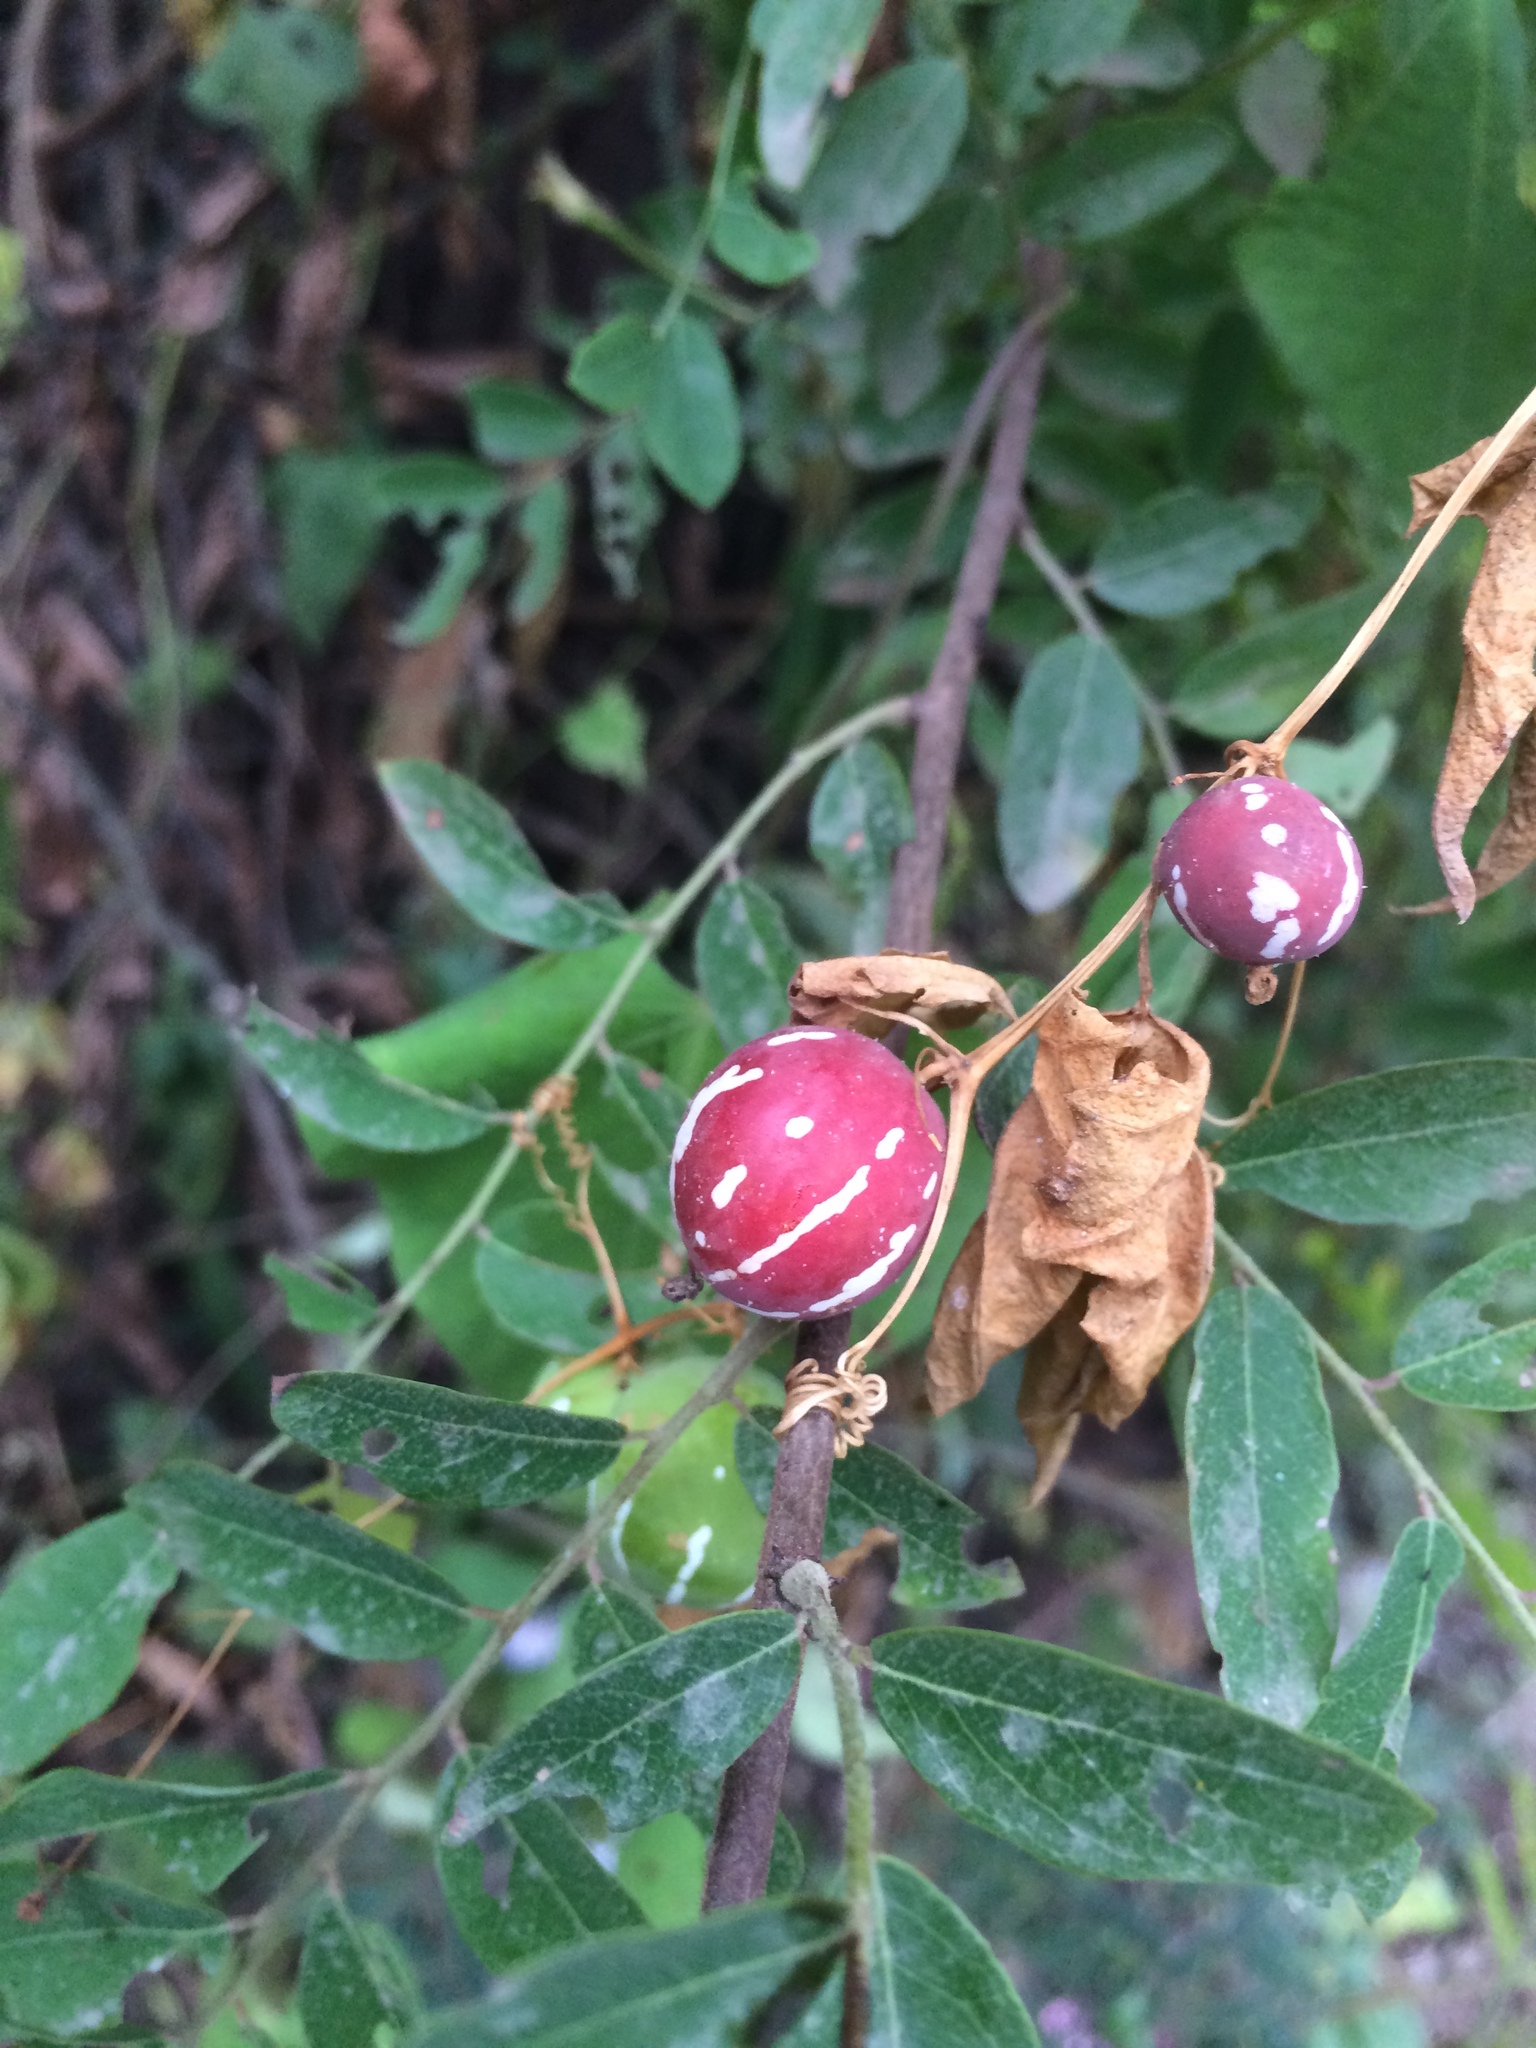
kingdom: Plantae
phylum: Tracheophyta
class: Magnoliopsida
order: Cucurbitales
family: Cucurbitaceae
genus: Diplocyclos
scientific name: Diplocyclos palmatus
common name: Striped-cucumber
